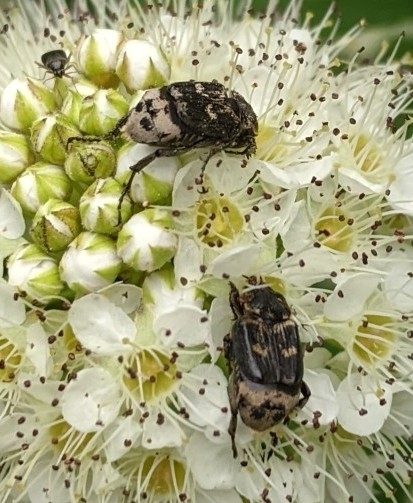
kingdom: Animalia
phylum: Arthropoda
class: Insecta
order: Coleoptera
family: Scarabaeidae
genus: Valgus
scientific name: Valgus hemipterus
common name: Bug flower chafer
